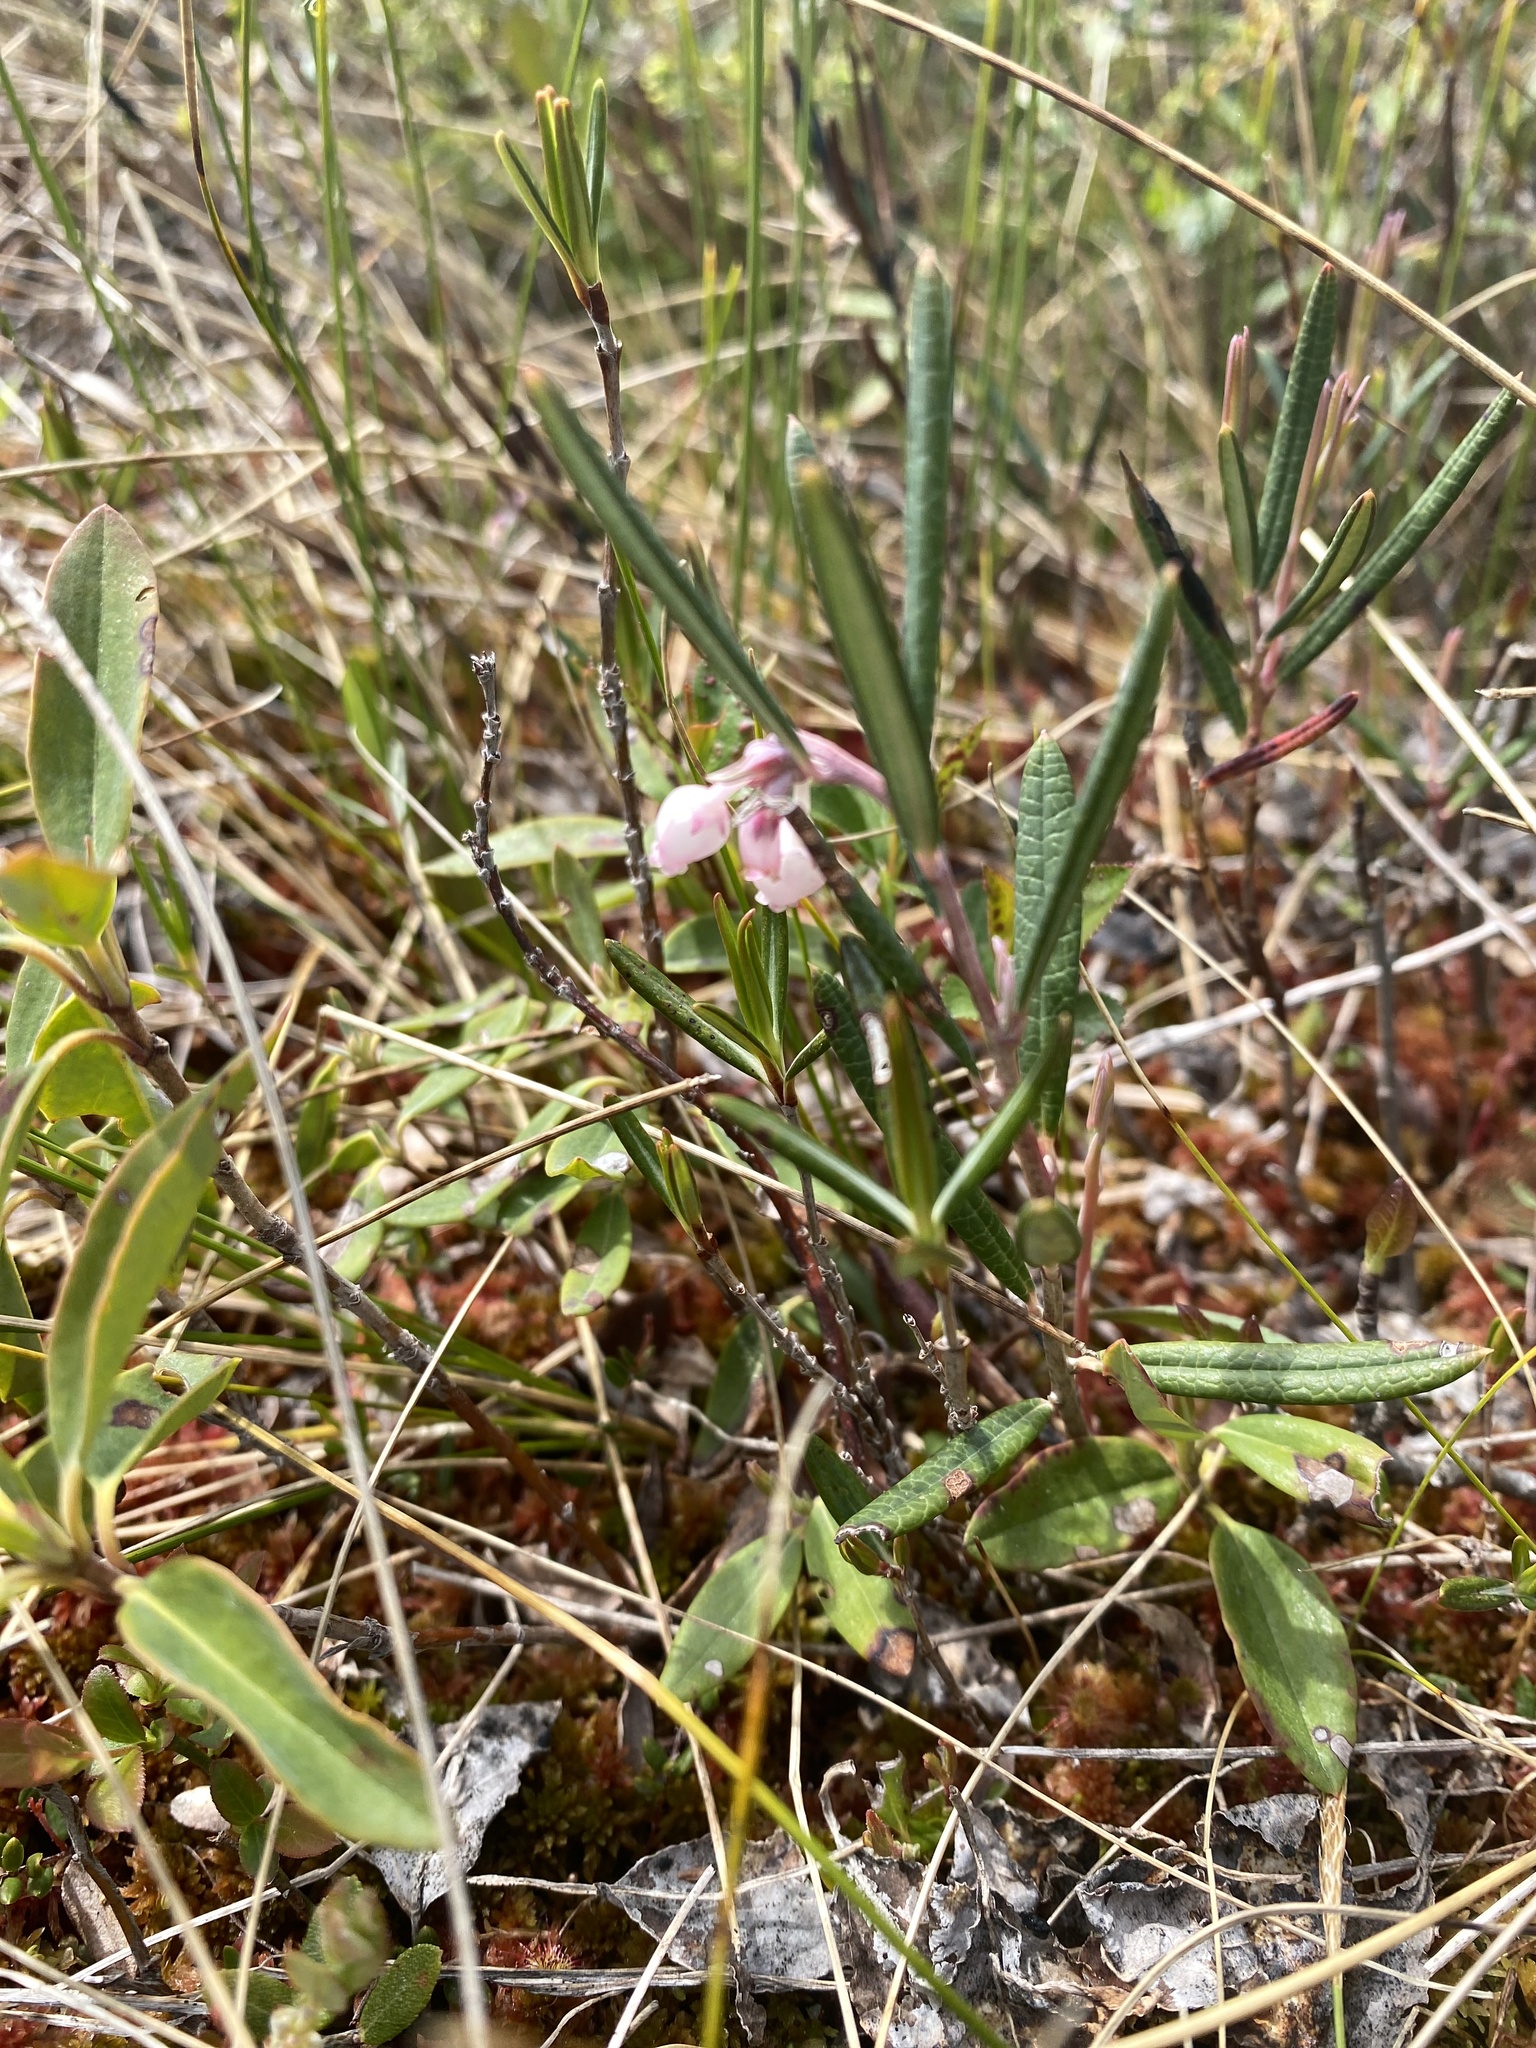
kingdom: Plantae
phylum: Tracheophyta
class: Magnoliopsida
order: Ericales
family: Ericaceae
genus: Andromeda
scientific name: Andromeda polifolia
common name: Bog-rosemary
